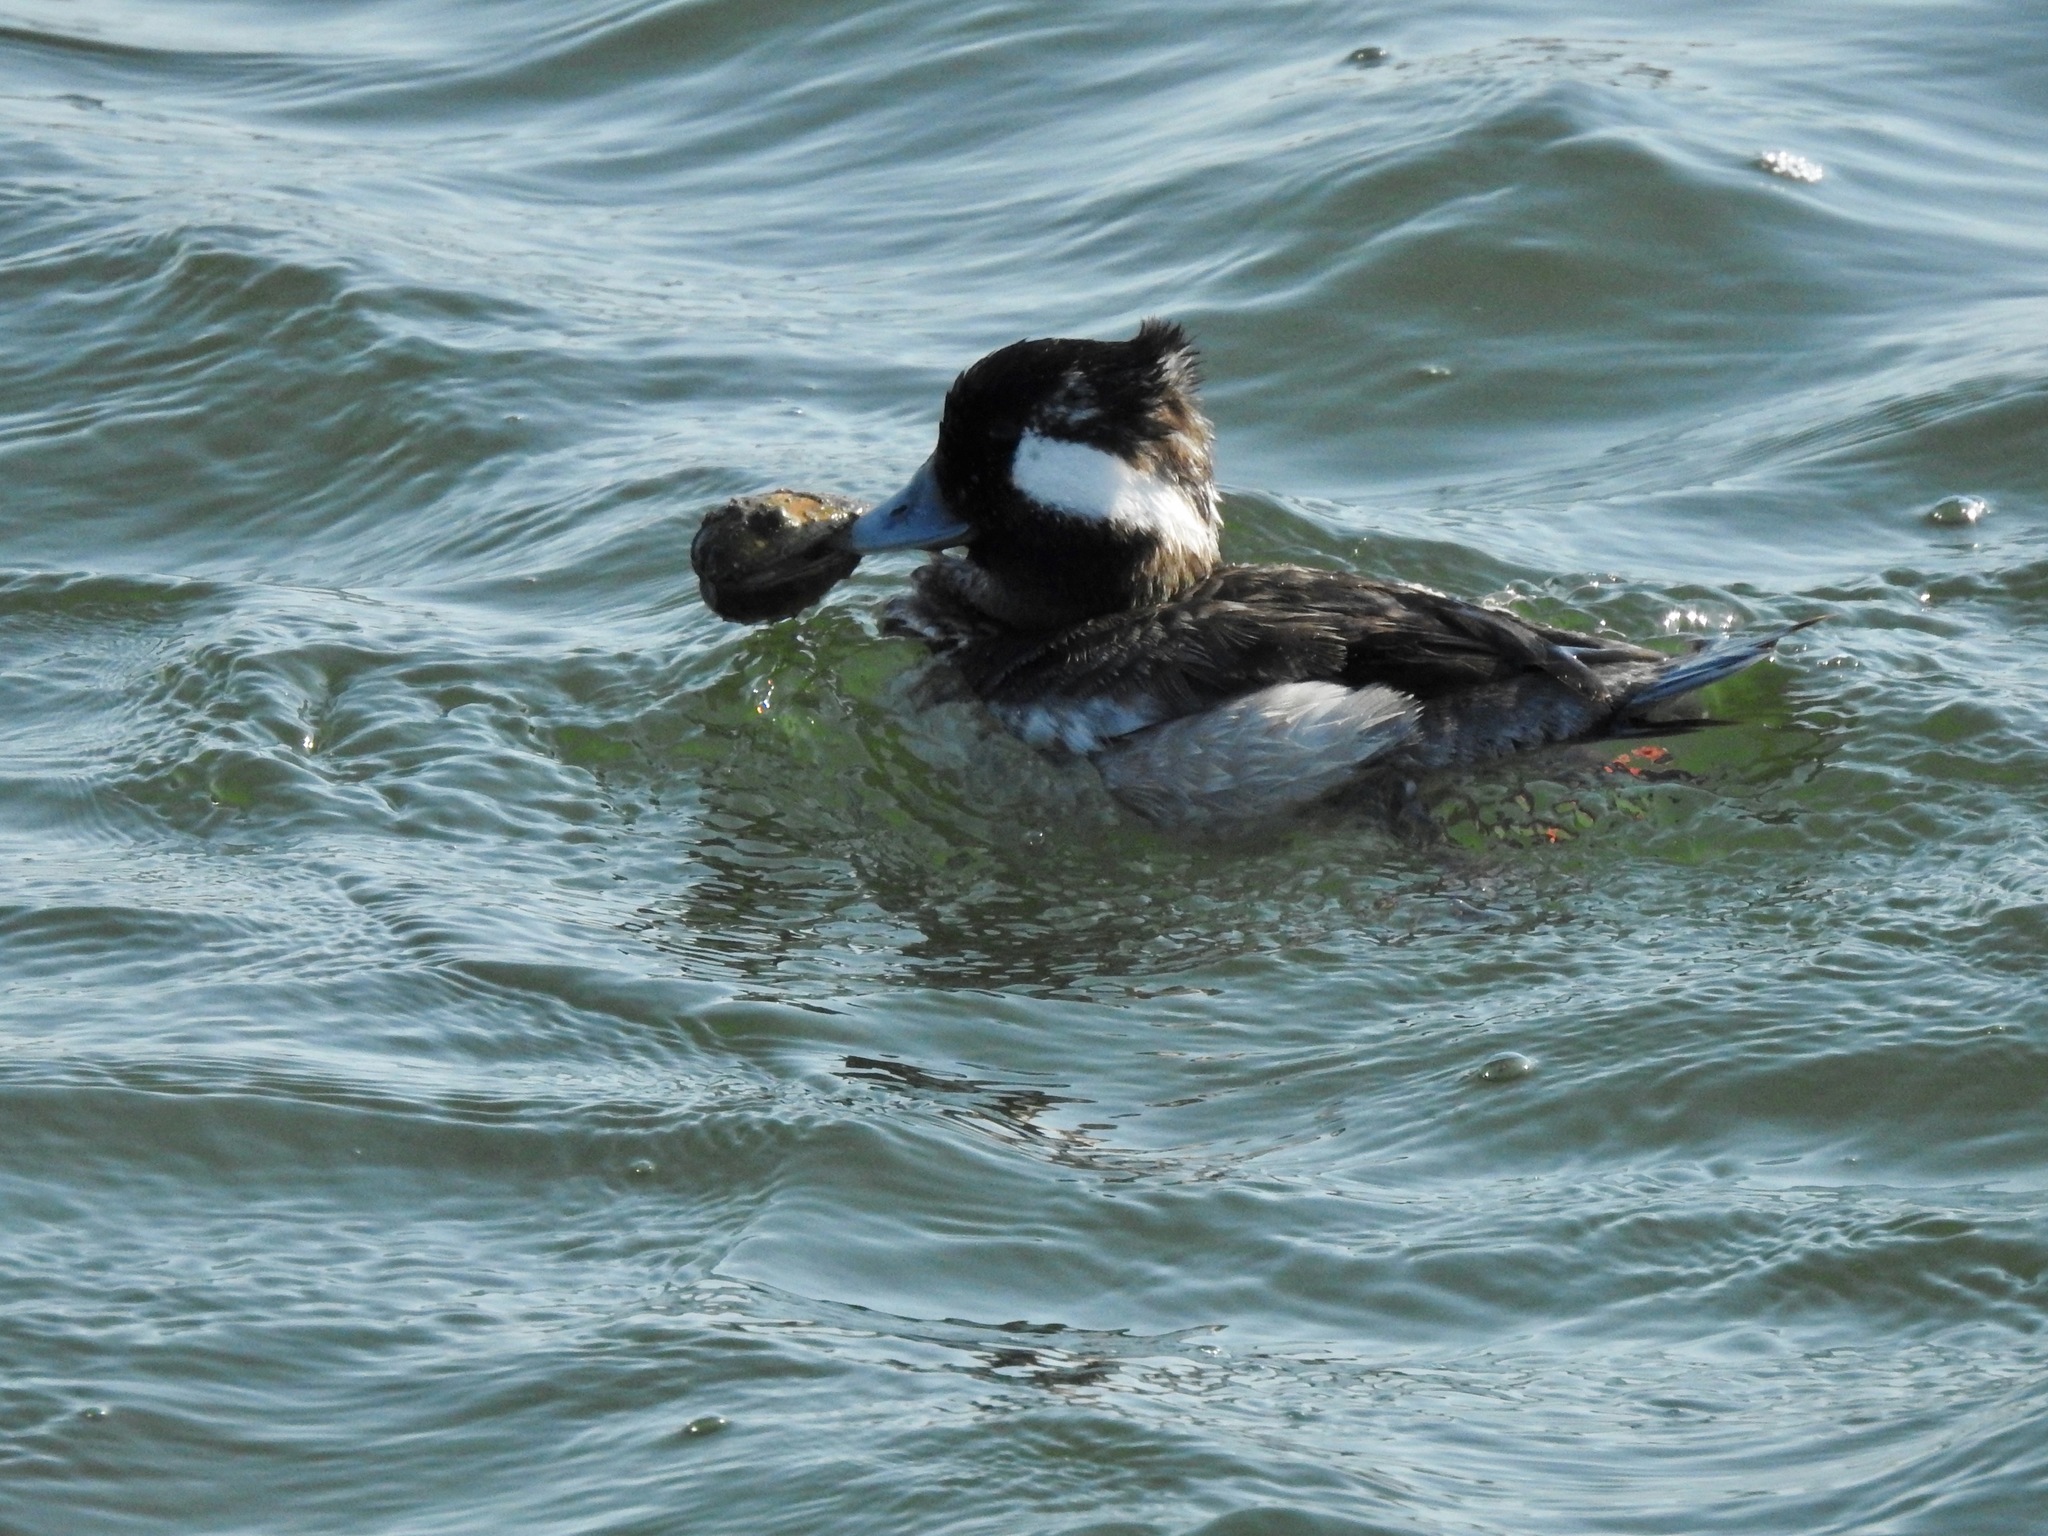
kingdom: Animalia
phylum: Chordata
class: Aves
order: Anseriformes
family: Anatidae
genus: Bucephala
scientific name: Bucephala albeola
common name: Bufflehead
